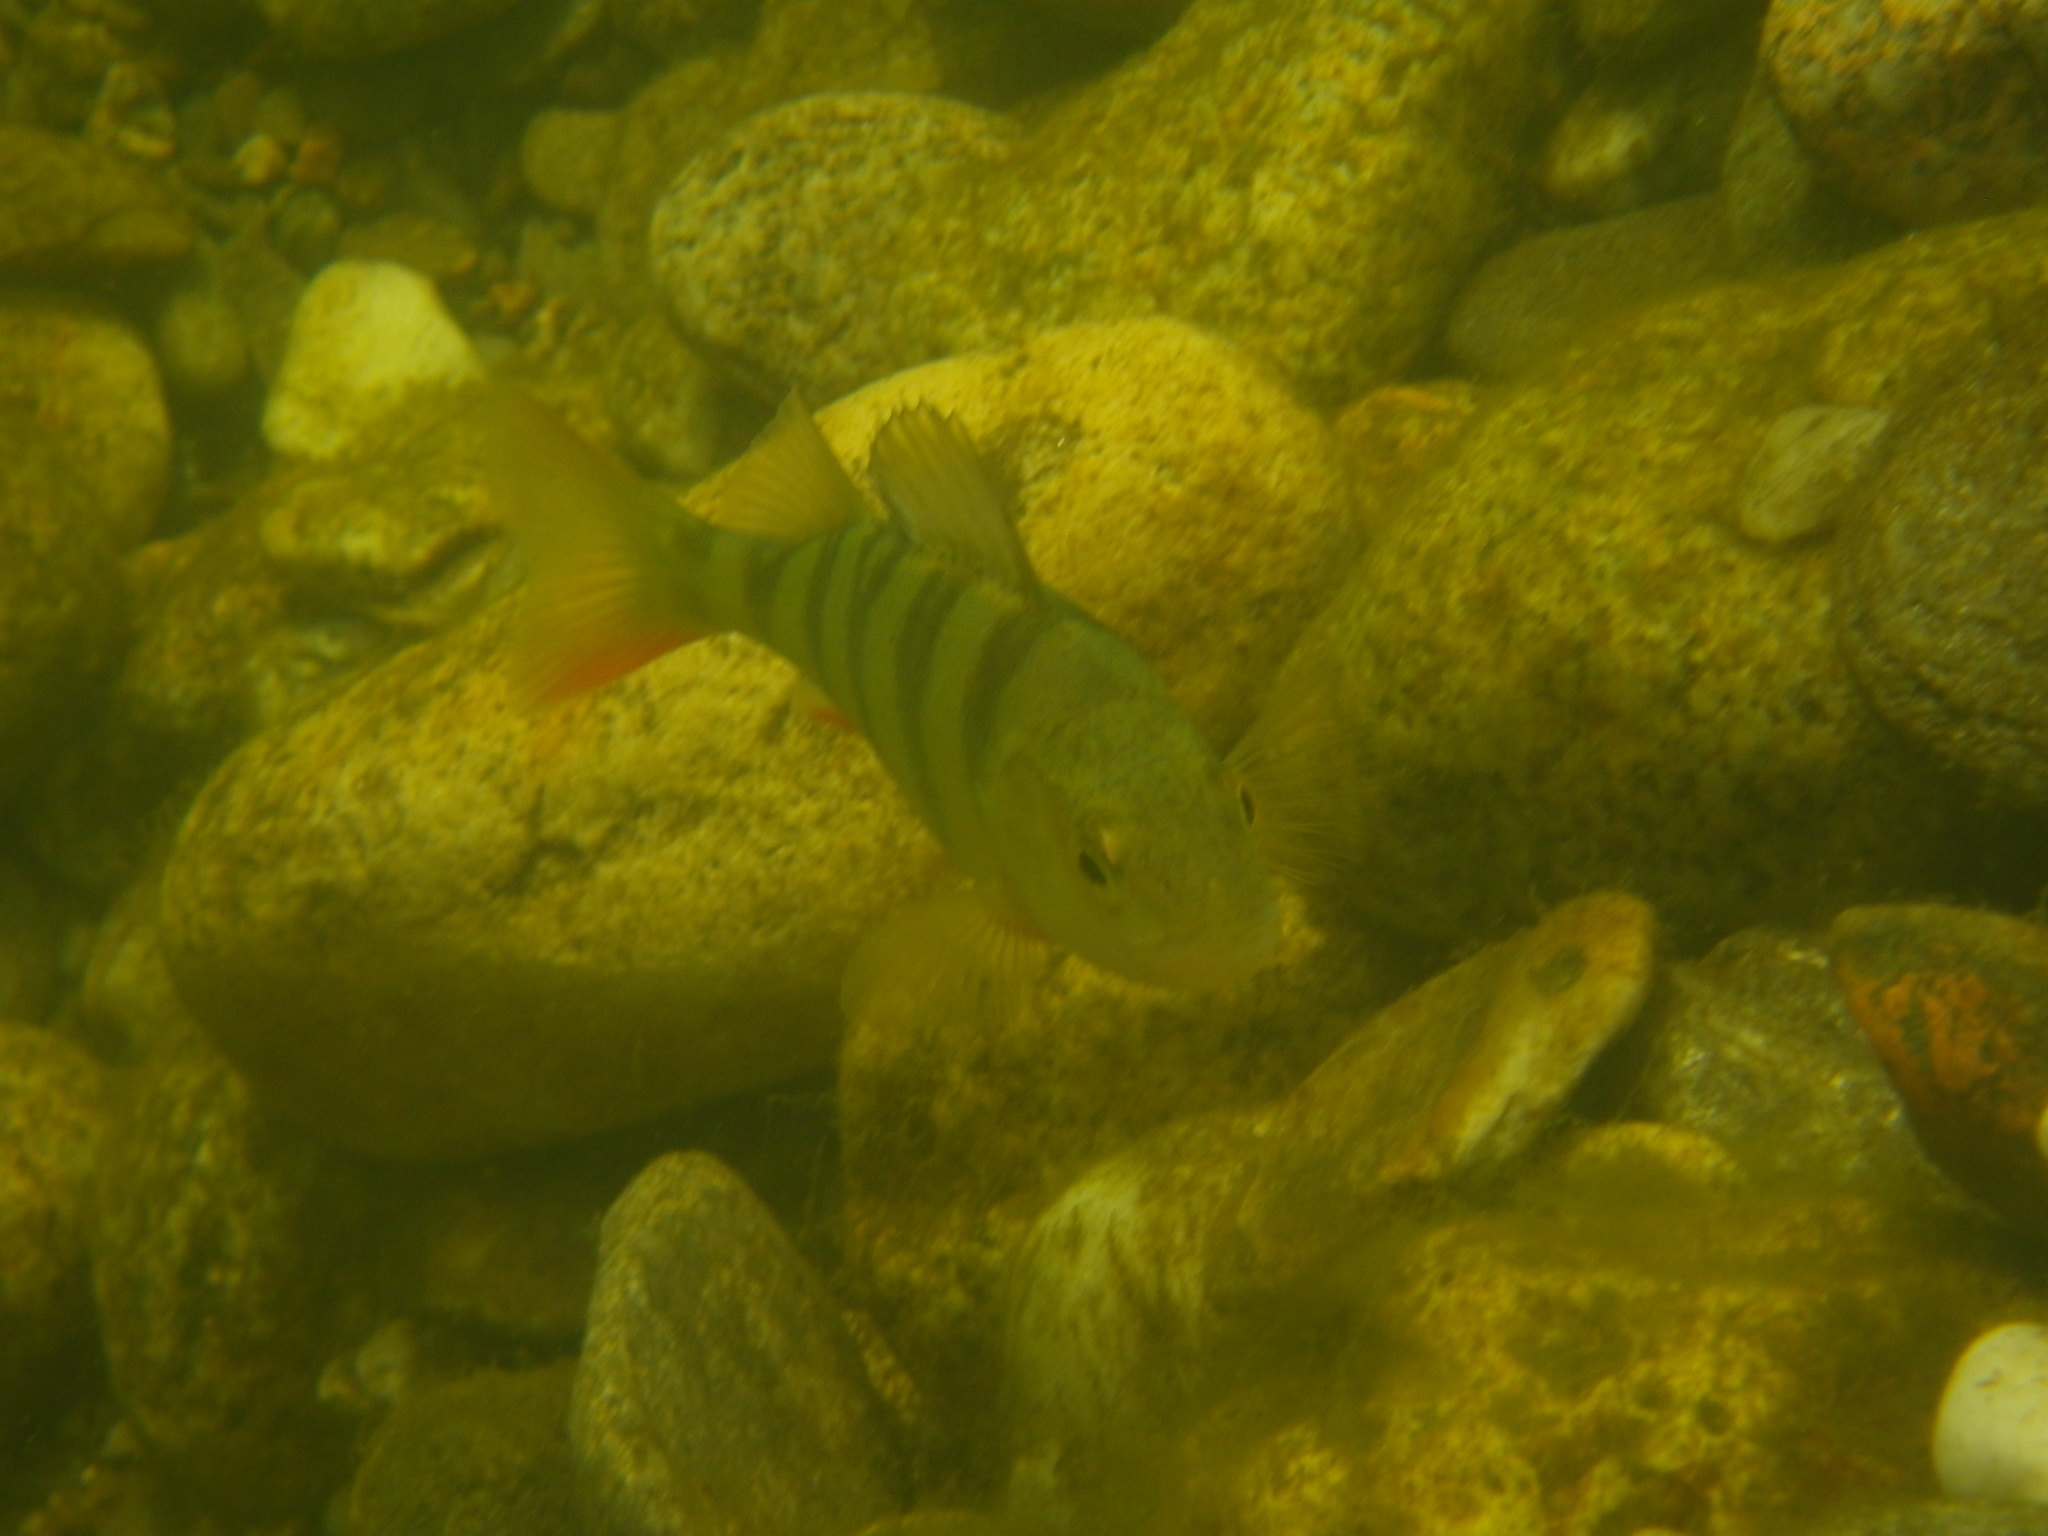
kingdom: Animalia
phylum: Chordata
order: Perciformes
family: Percidae
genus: Perca
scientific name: Perca fluviatilis
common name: Perch
